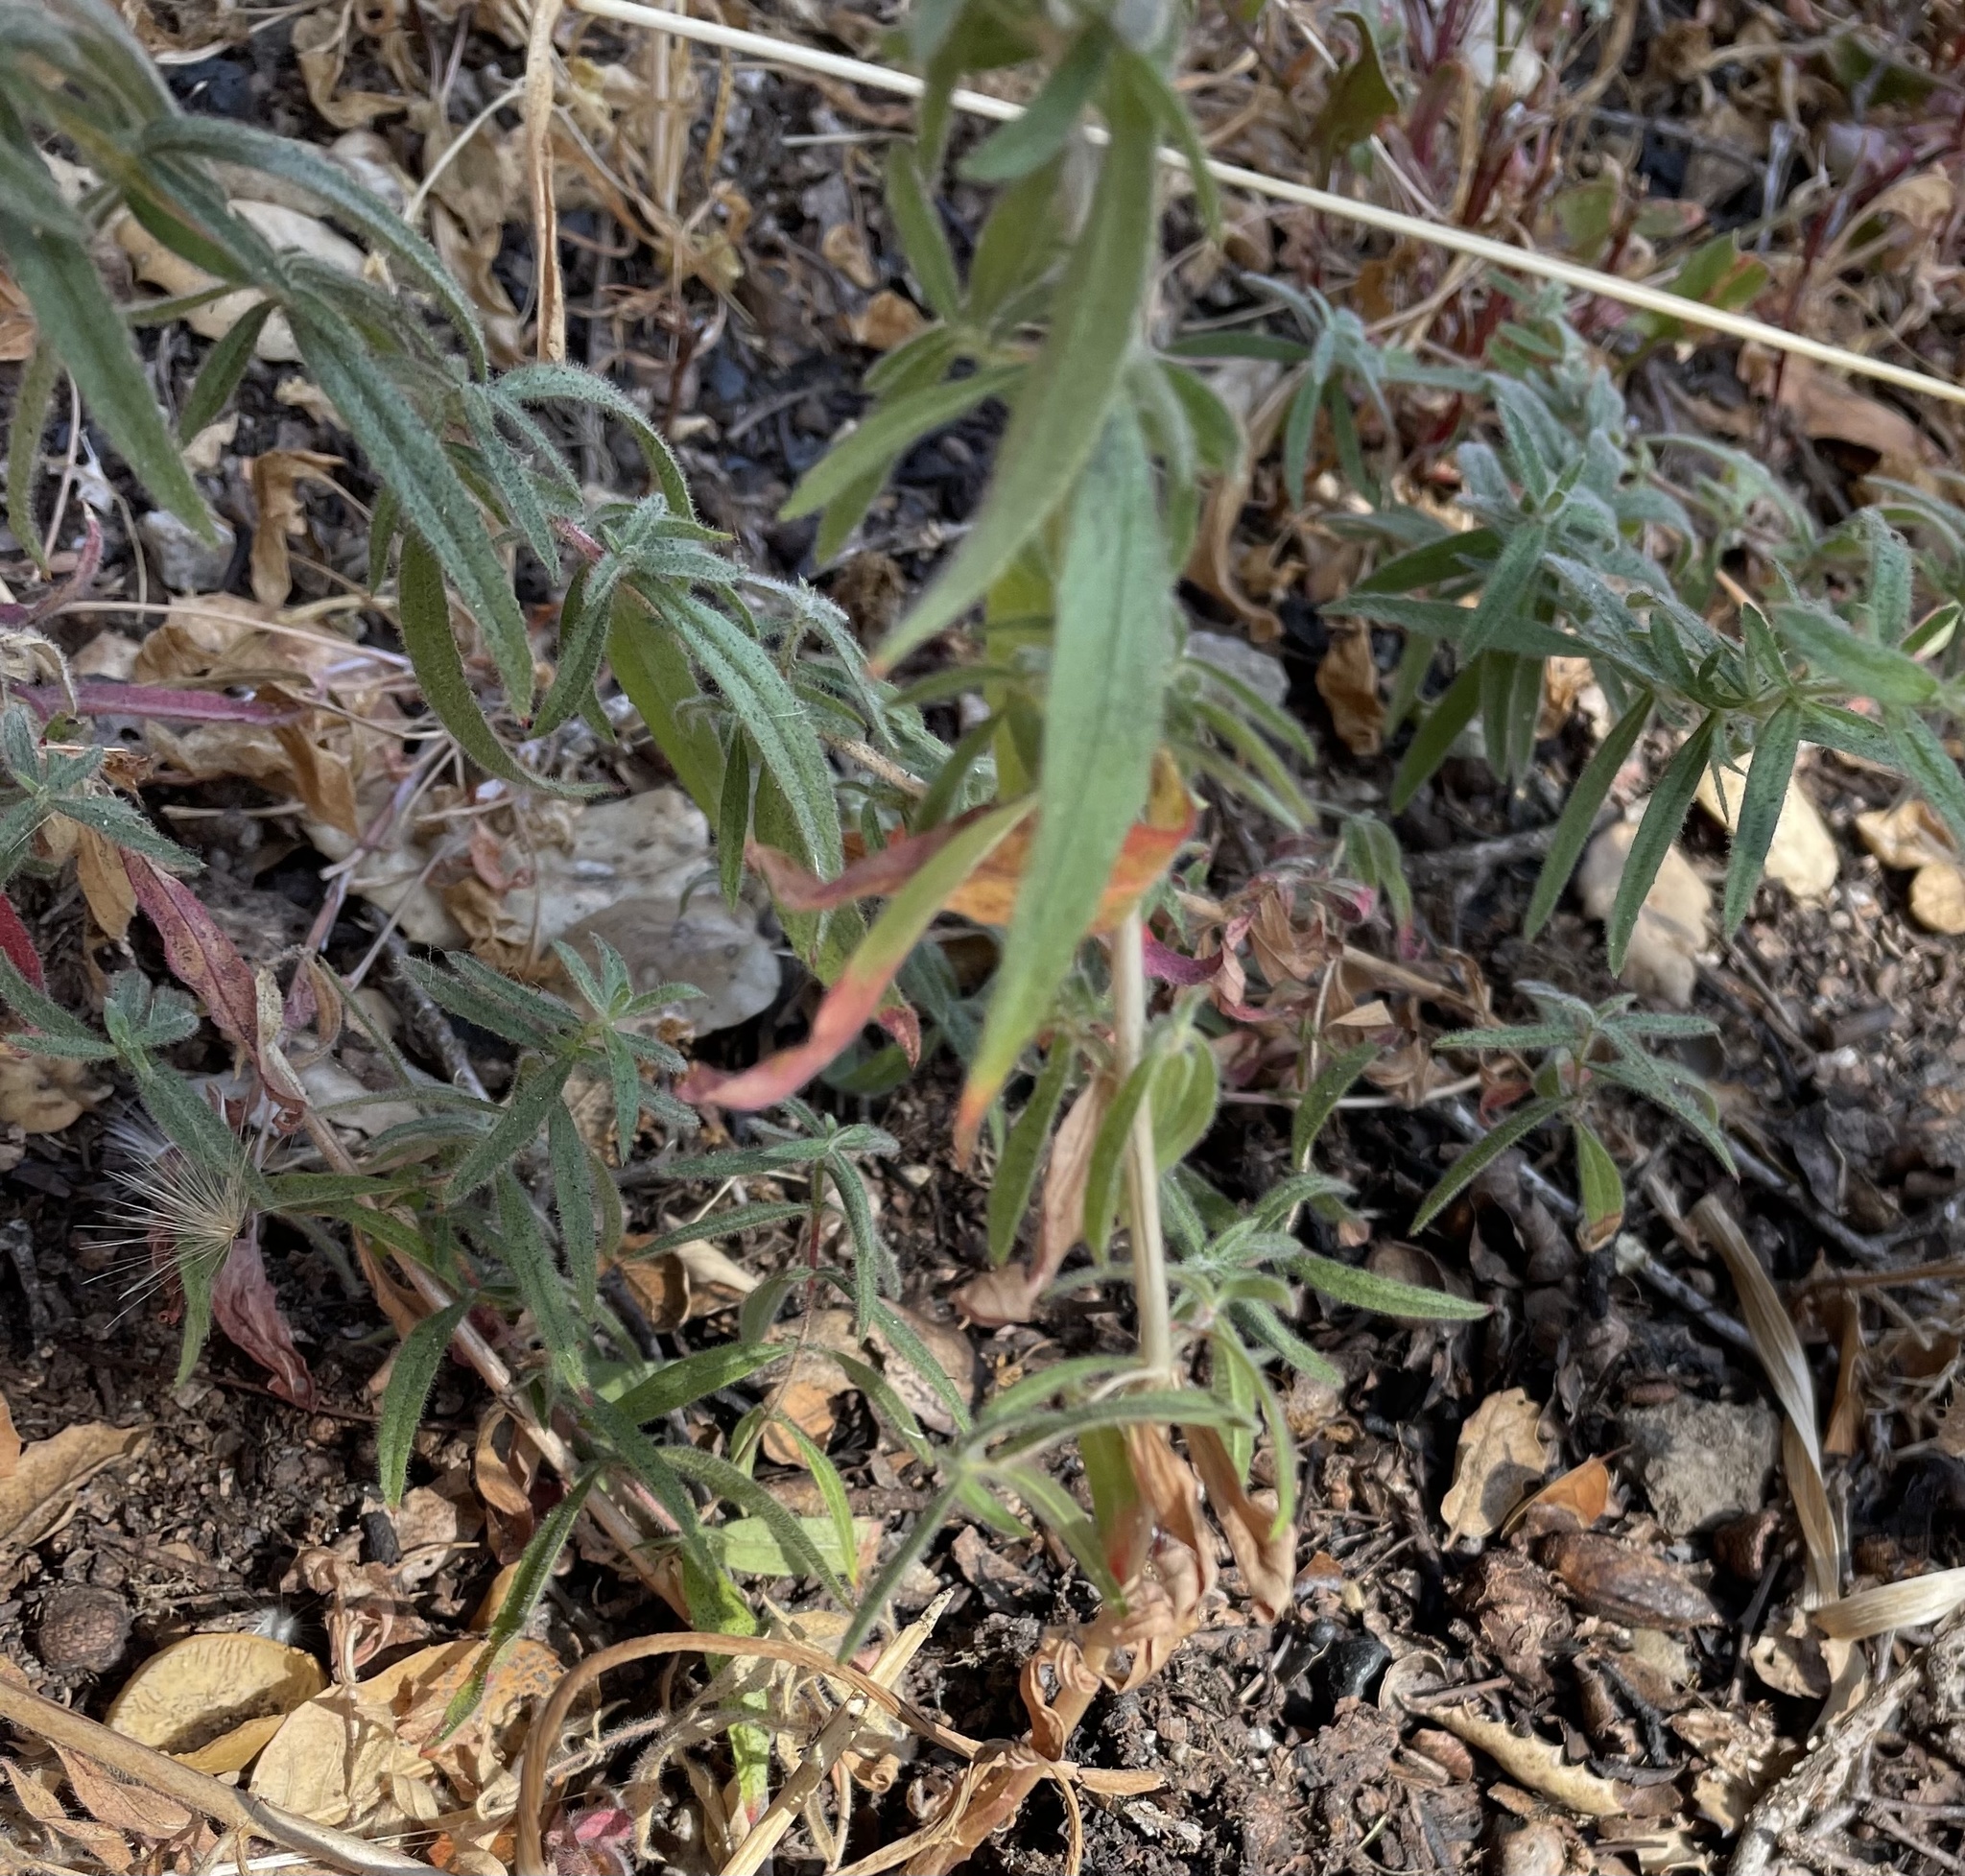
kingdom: Plantae
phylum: Tracheophyta
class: Magnoliopsida
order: Myrtales
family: Onagraceae
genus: Epilobium
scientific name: Epilobium canum
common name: California-fuchsia
